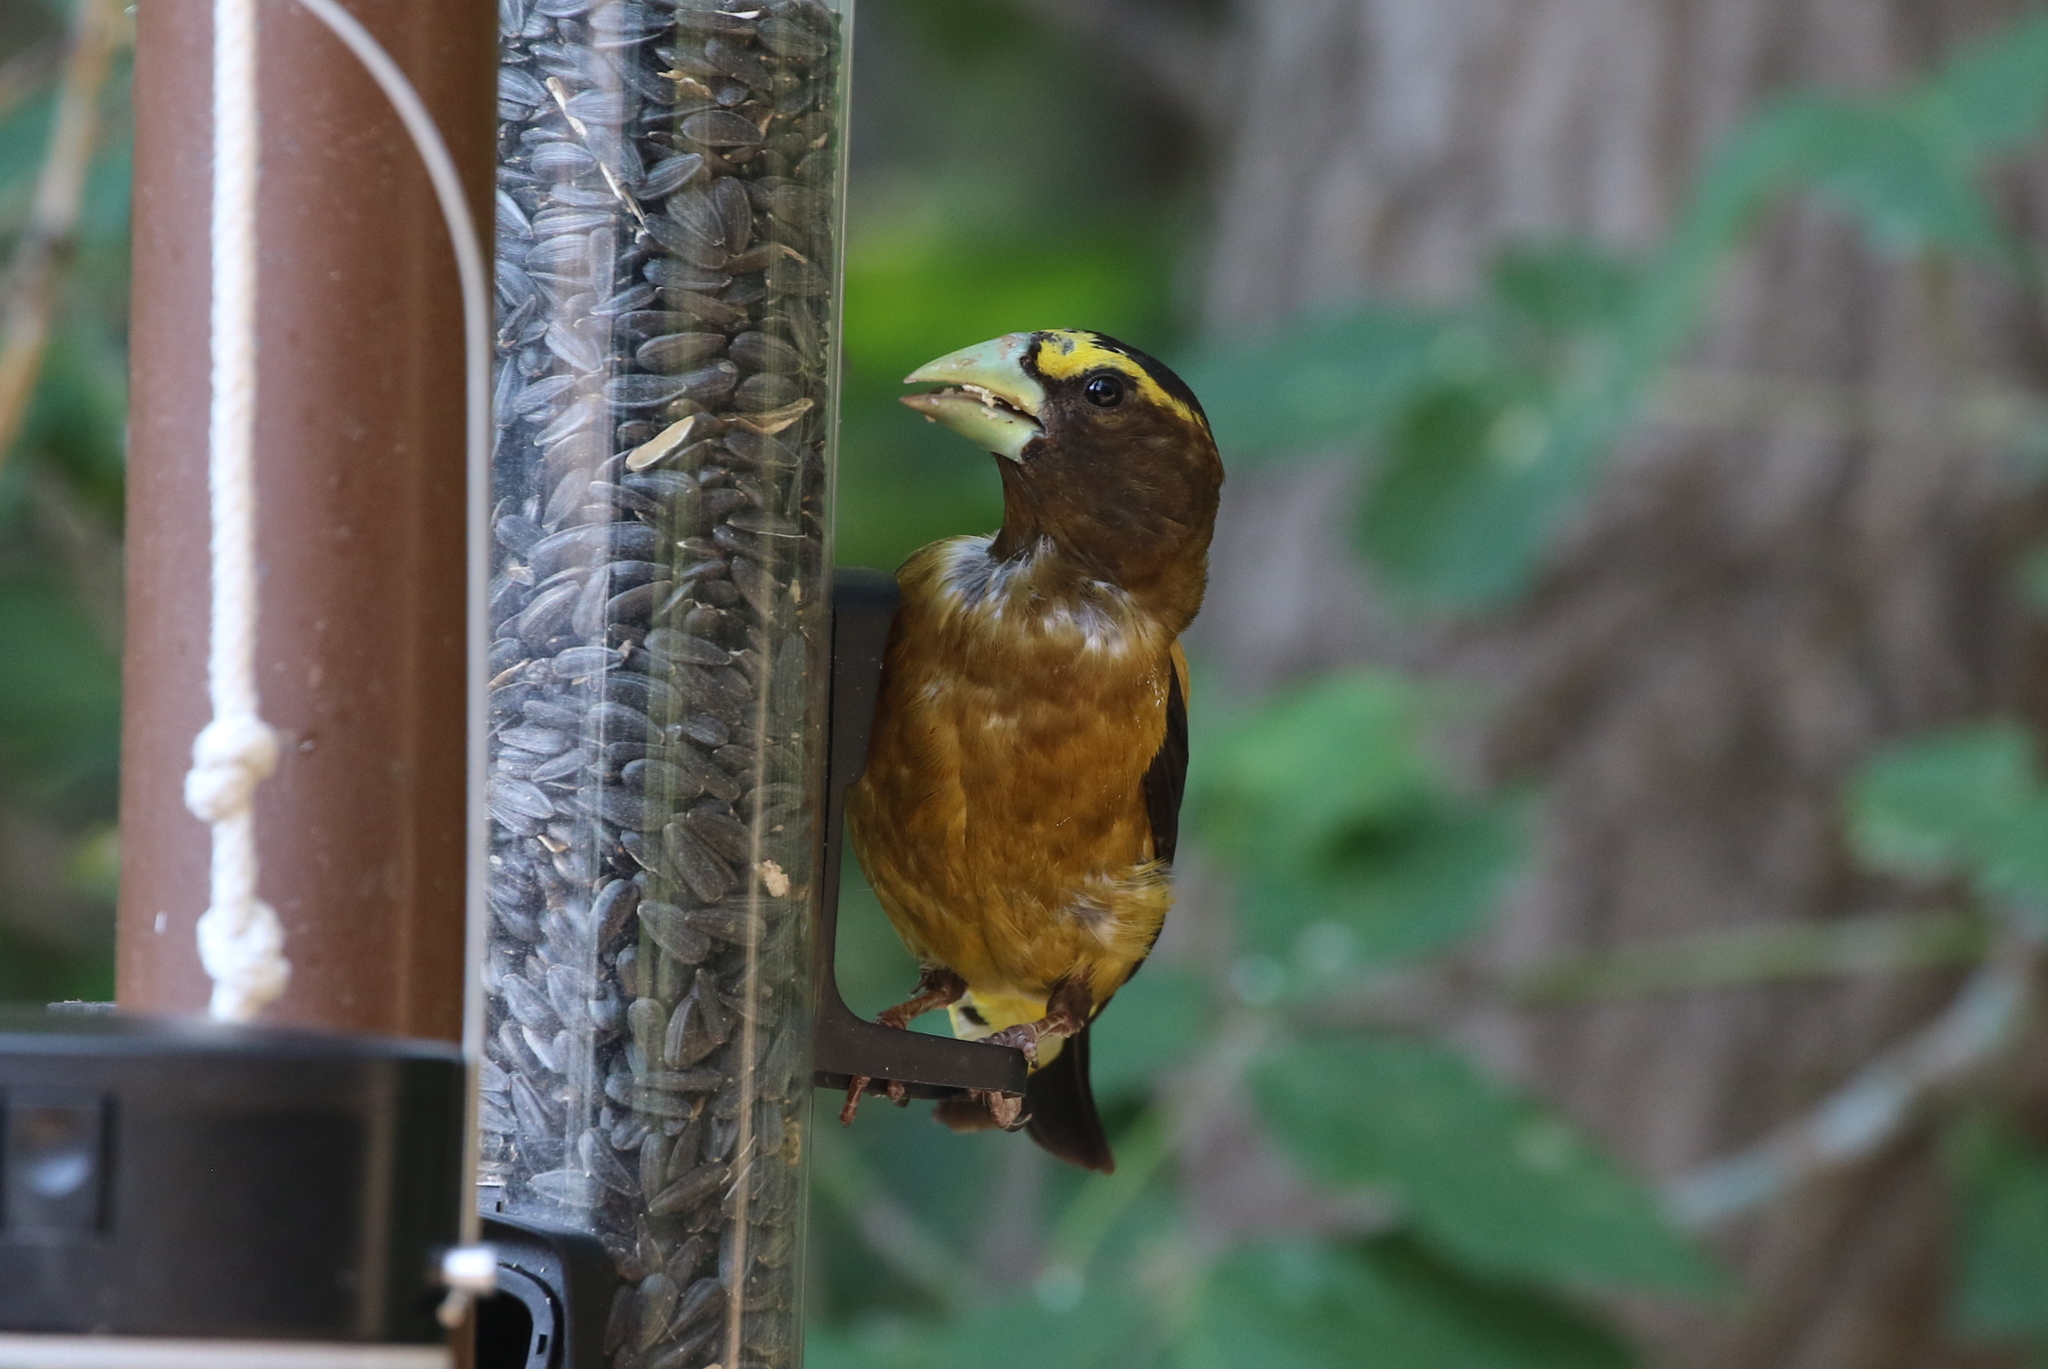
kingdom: Animalia
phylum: Chordata
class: Aves
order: Passeriformes
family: Fringillidae
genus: Hesperiphona
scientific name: Hesperiphona vespertina
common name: Evening grosbeak
